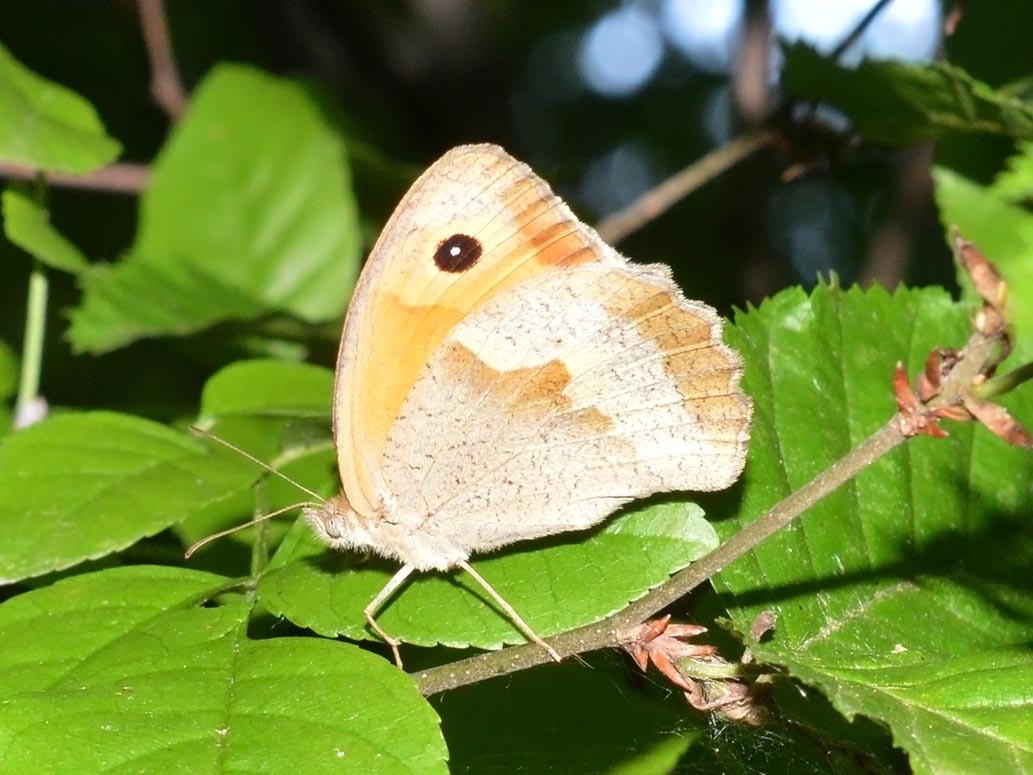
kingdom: Animalia
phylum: Arthropoda
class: Insecta
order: Lepidoptera
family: Nymphalidae
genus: Maniola
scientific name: Maniola jurtina
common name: Meadow brown
